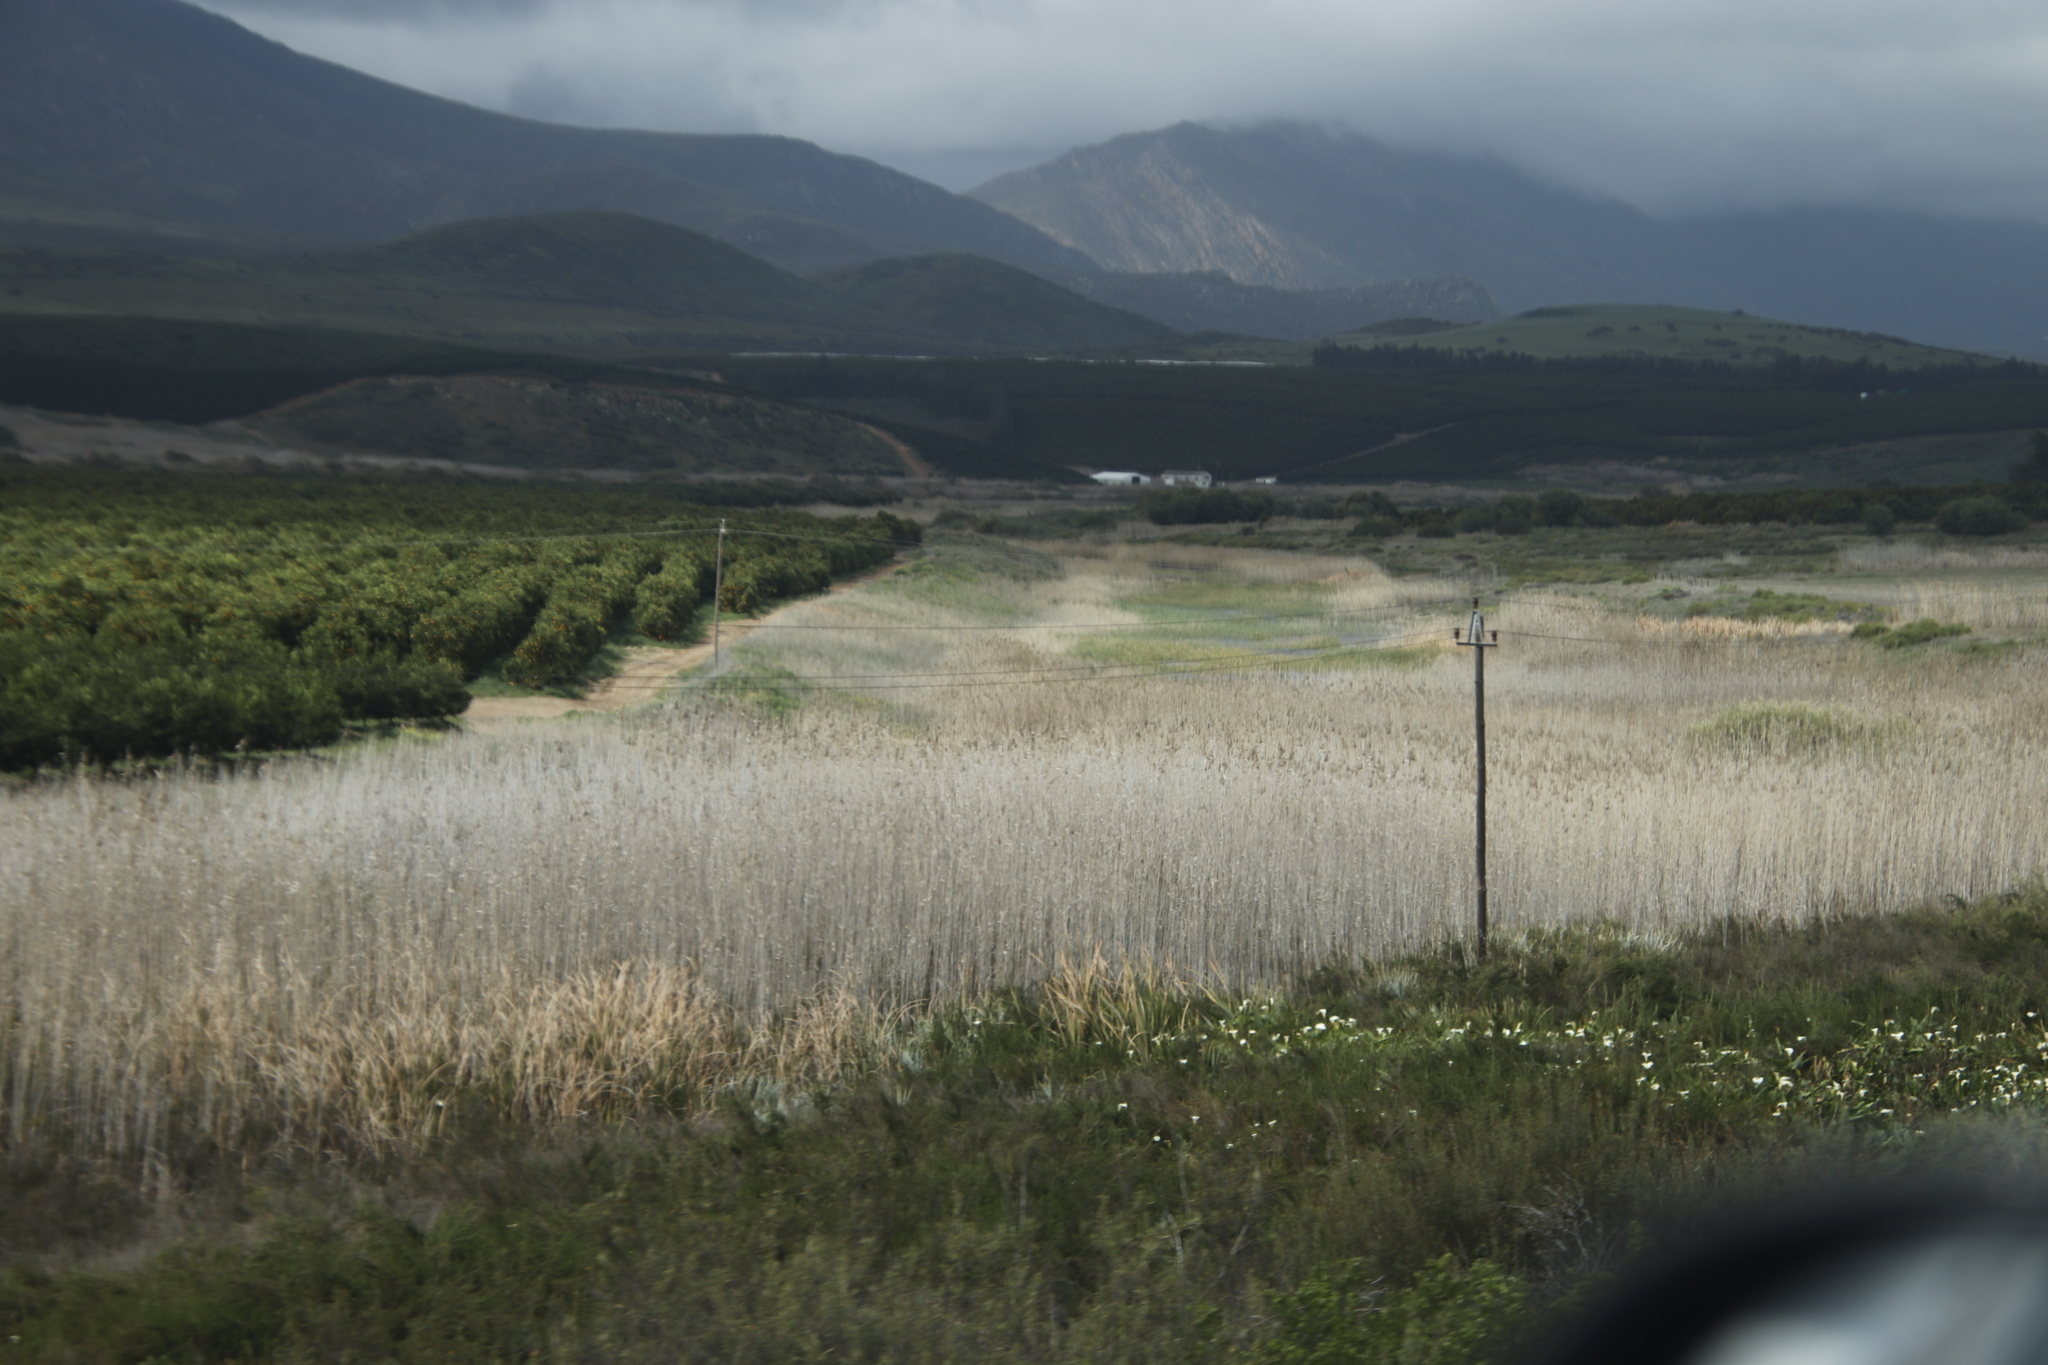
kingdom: Plantae
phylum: Tracheophyta
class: Liliopsida
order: Poales
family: Poaceae
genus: Phragmites
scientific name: Phragmites australis
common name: Common reed
